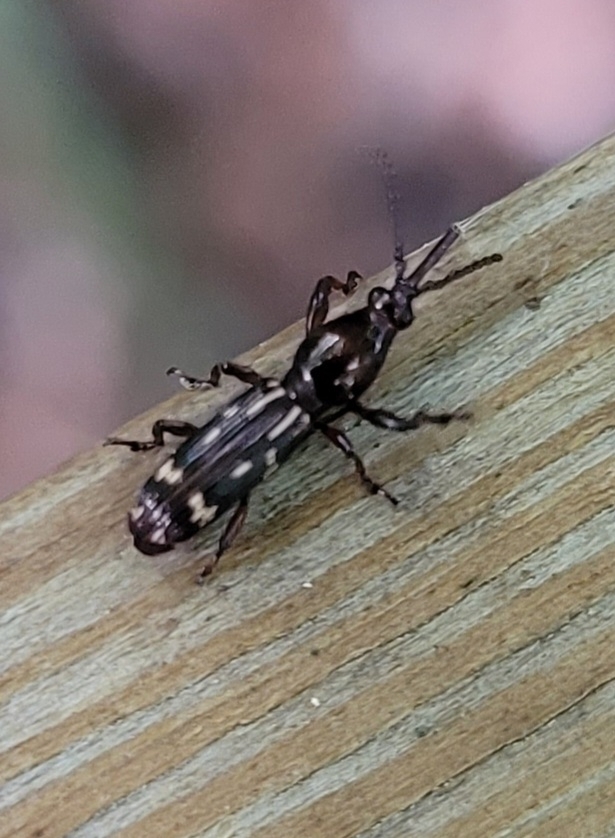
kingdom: Animalia
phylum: Arthropoda
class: Insecta
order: Coleoptera
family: Brentidae
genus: Arrenodes
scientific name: Arrenodes minutus
